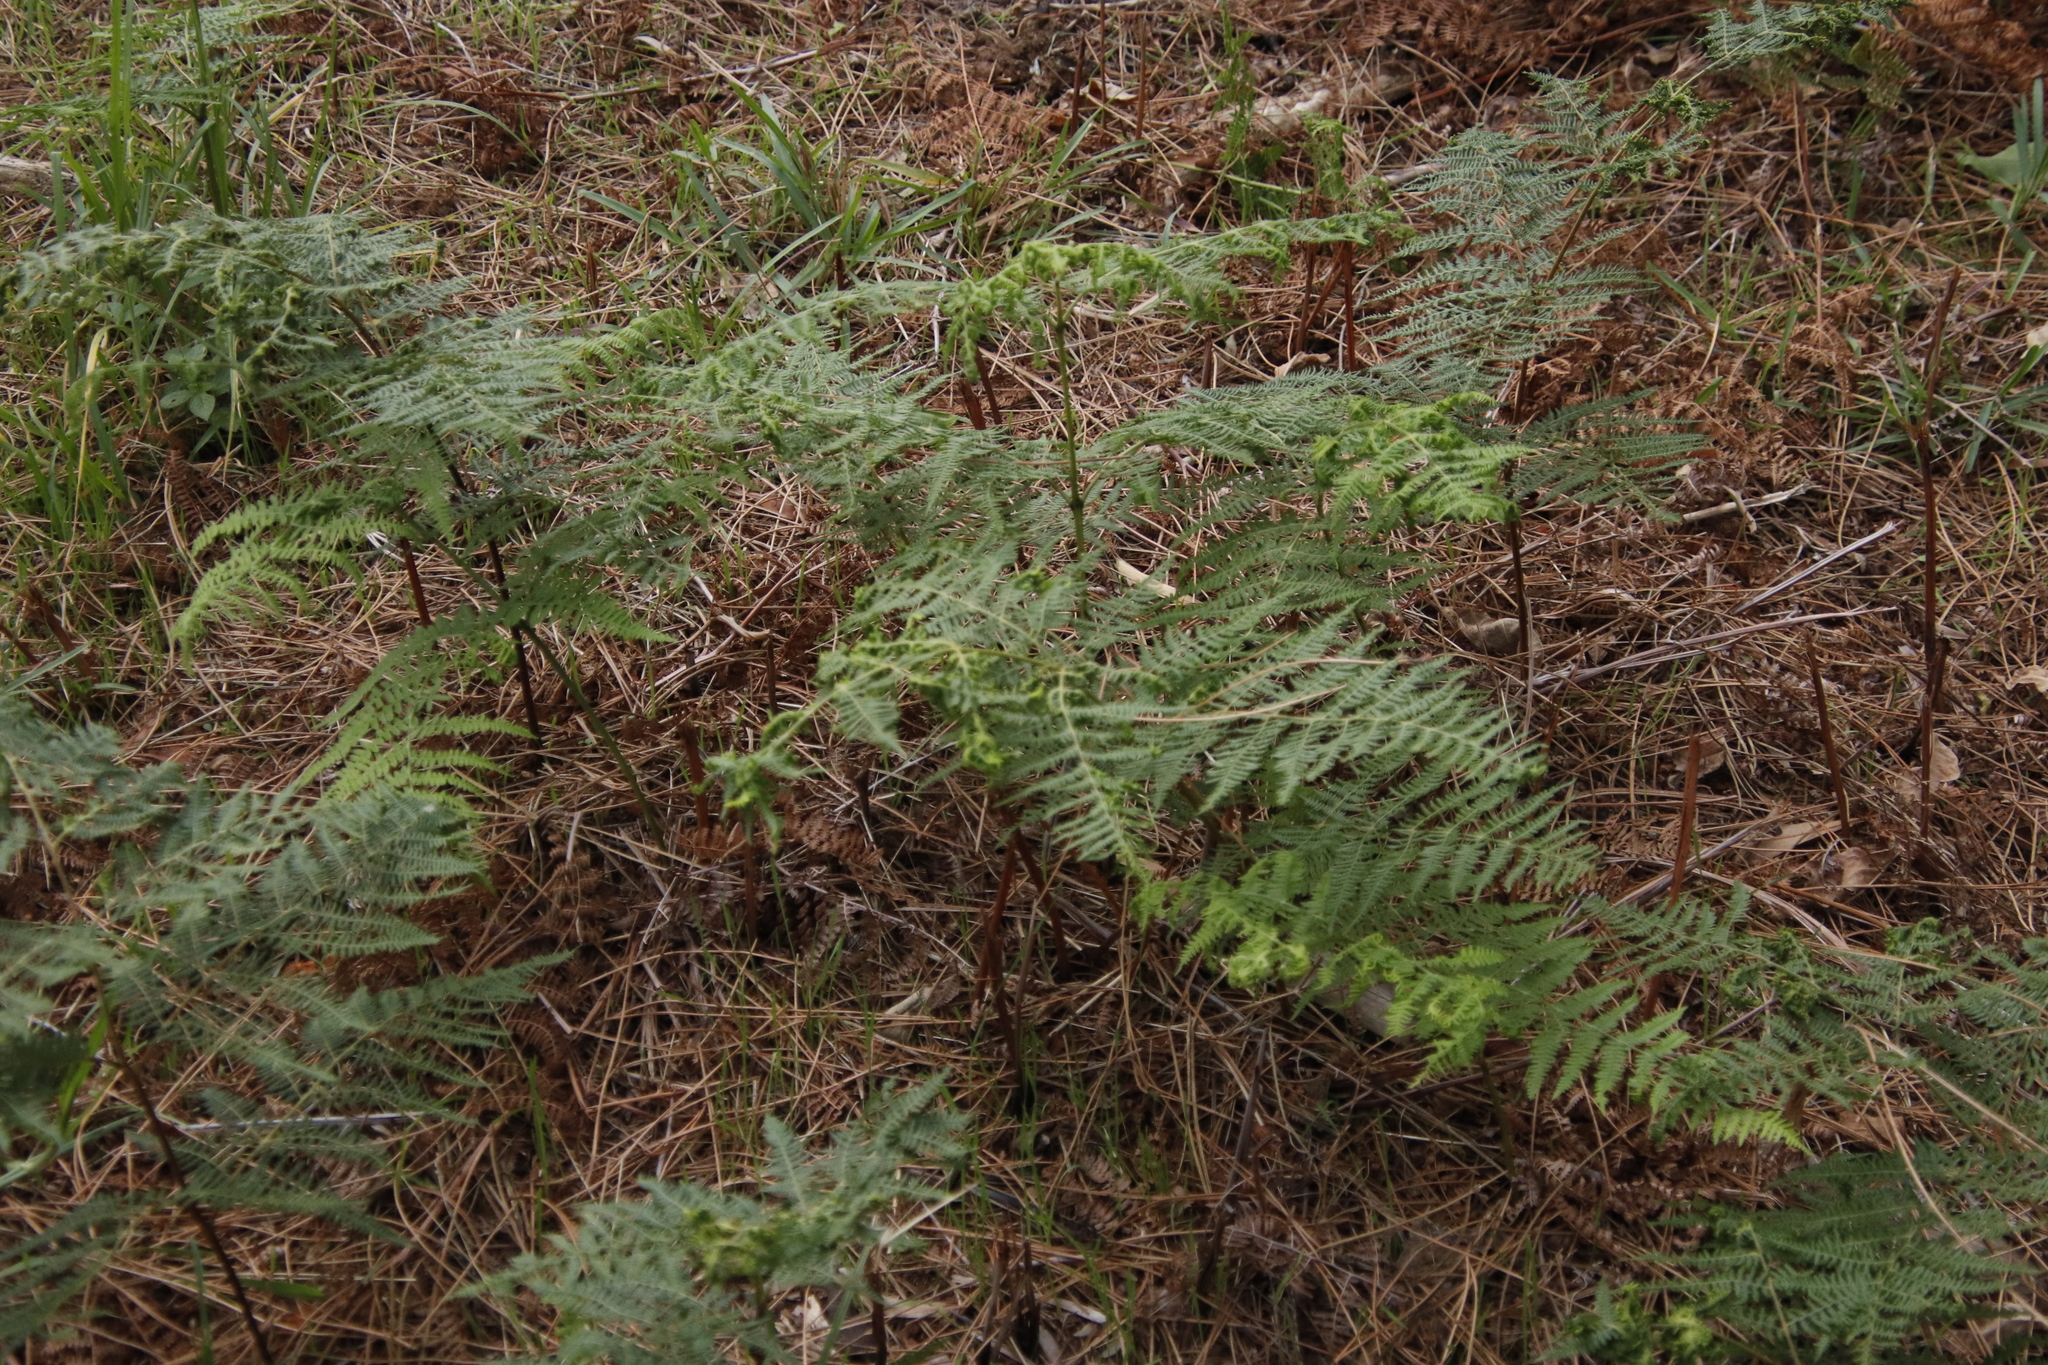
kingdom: Plantae
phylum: Tracheophyta
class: Polypodiopsida
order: Polypodiales
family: Dennstaedtiaceae
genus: Pteridium
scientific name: Pteridium aquilinum
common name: Bracken
